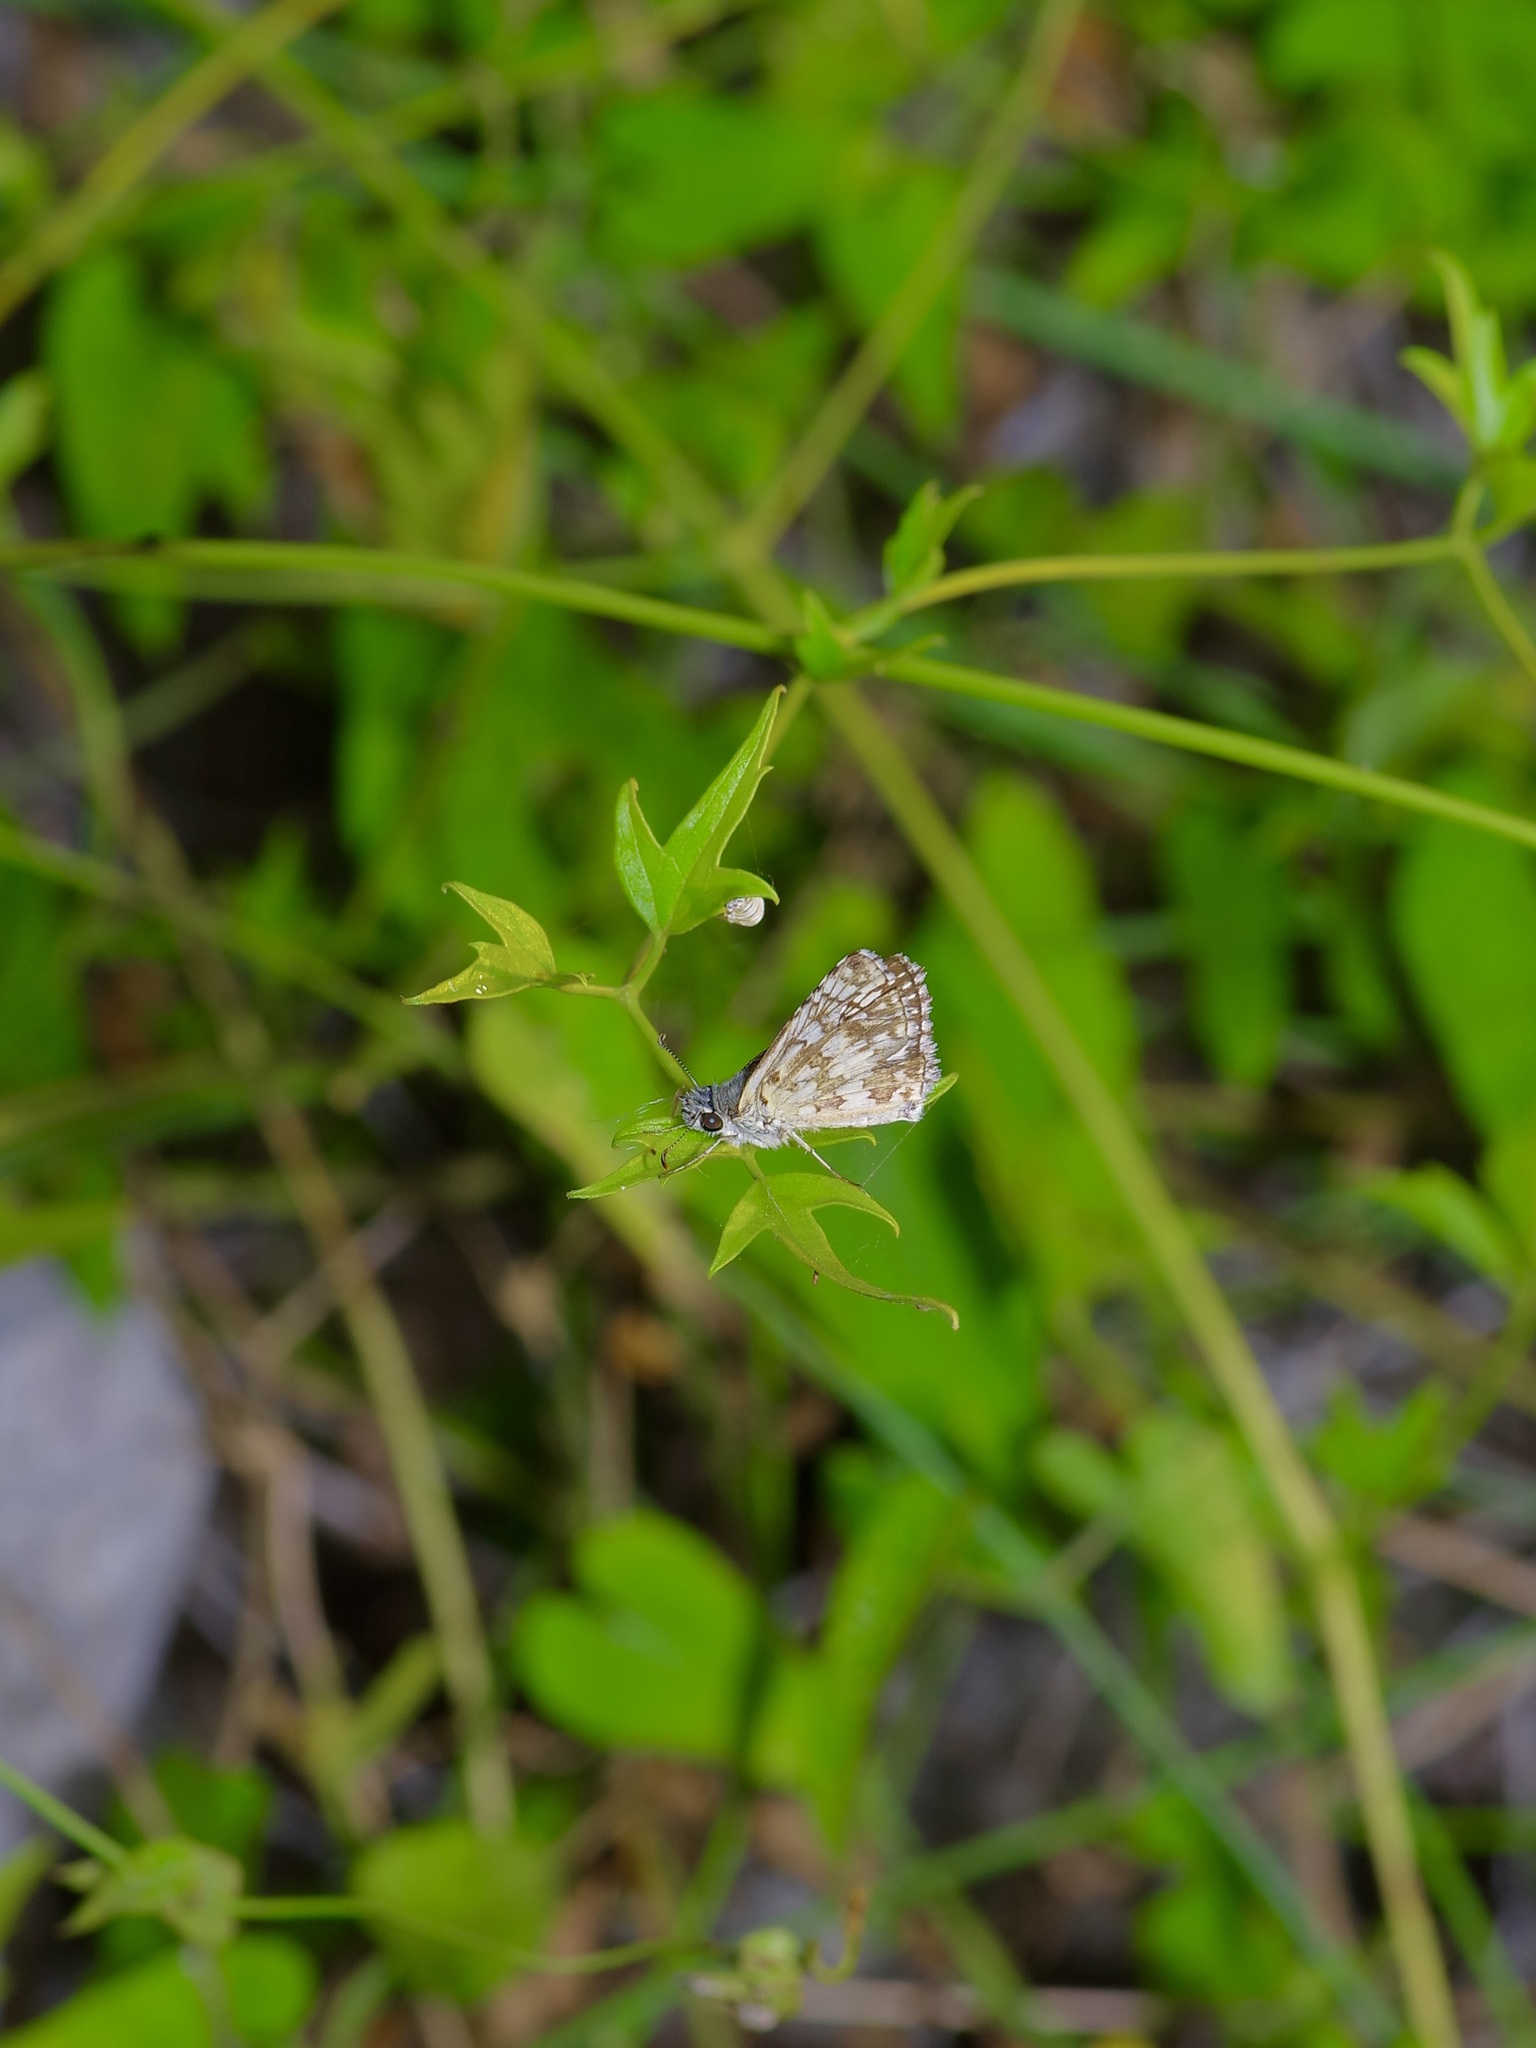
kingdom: Animalia
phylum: Arthropoda
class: Insecta
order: Lepidoptera
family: Hesperiidae
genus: Burnsius
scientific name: Burnsius
